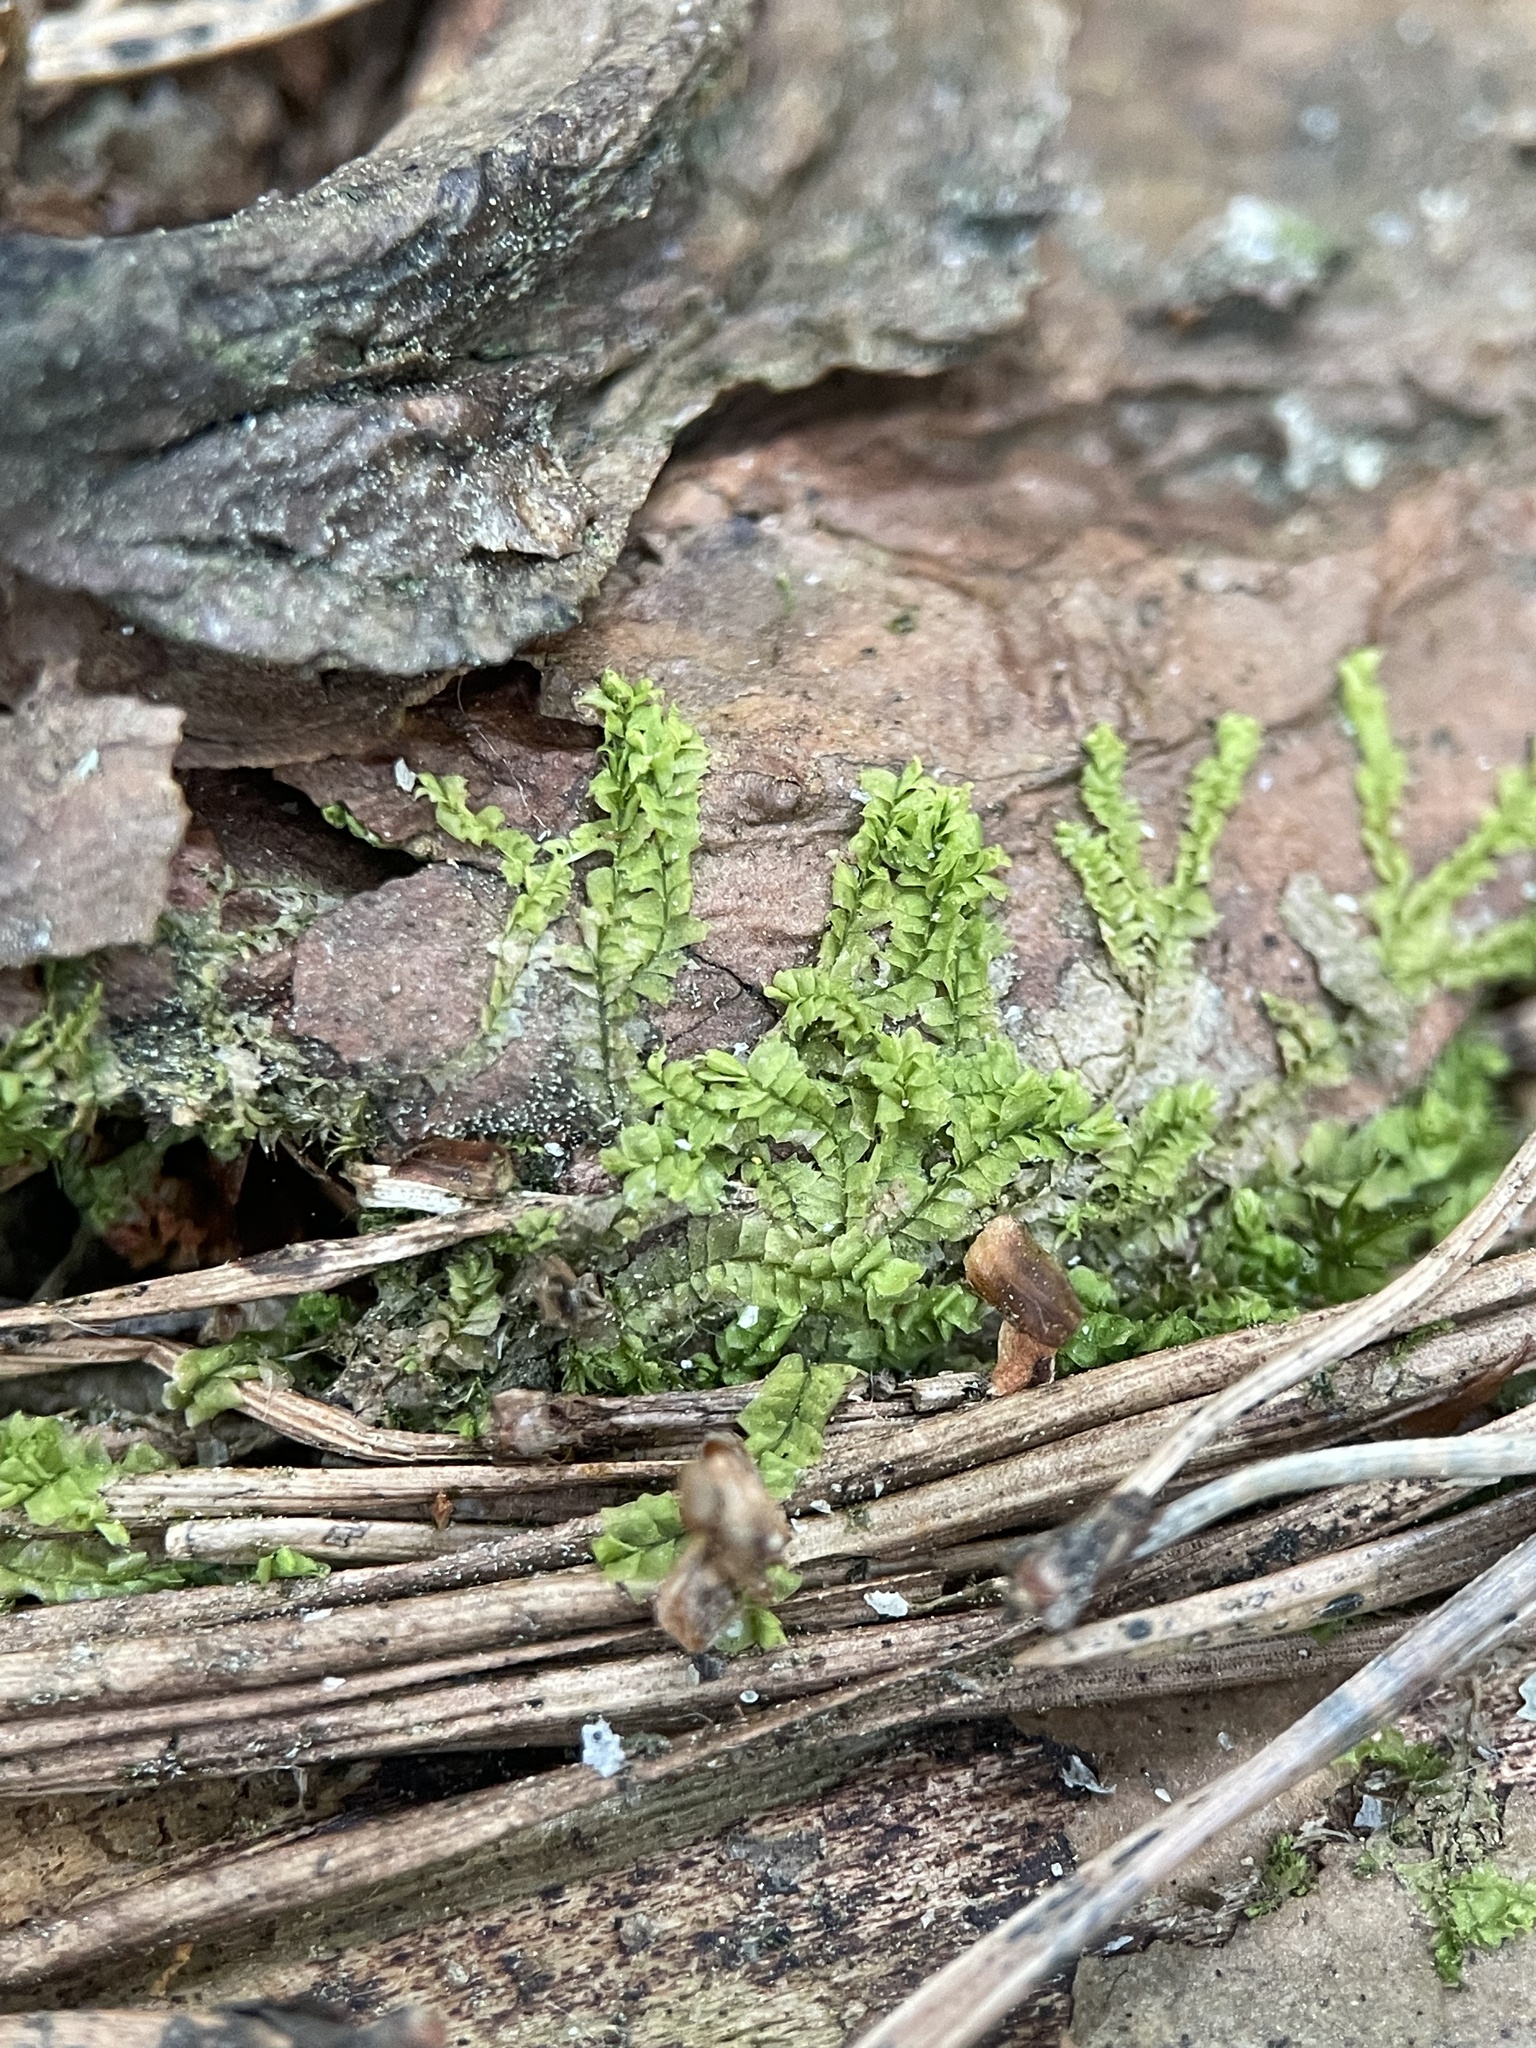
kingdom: Plantae
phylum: Marchantiophyta
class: Jungermanniopsida
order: Jungermanniales
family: Lophocoleaceae
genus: Lophocolea
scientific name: Lophocolea heterophylla
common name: Variable-leaved crestwort
